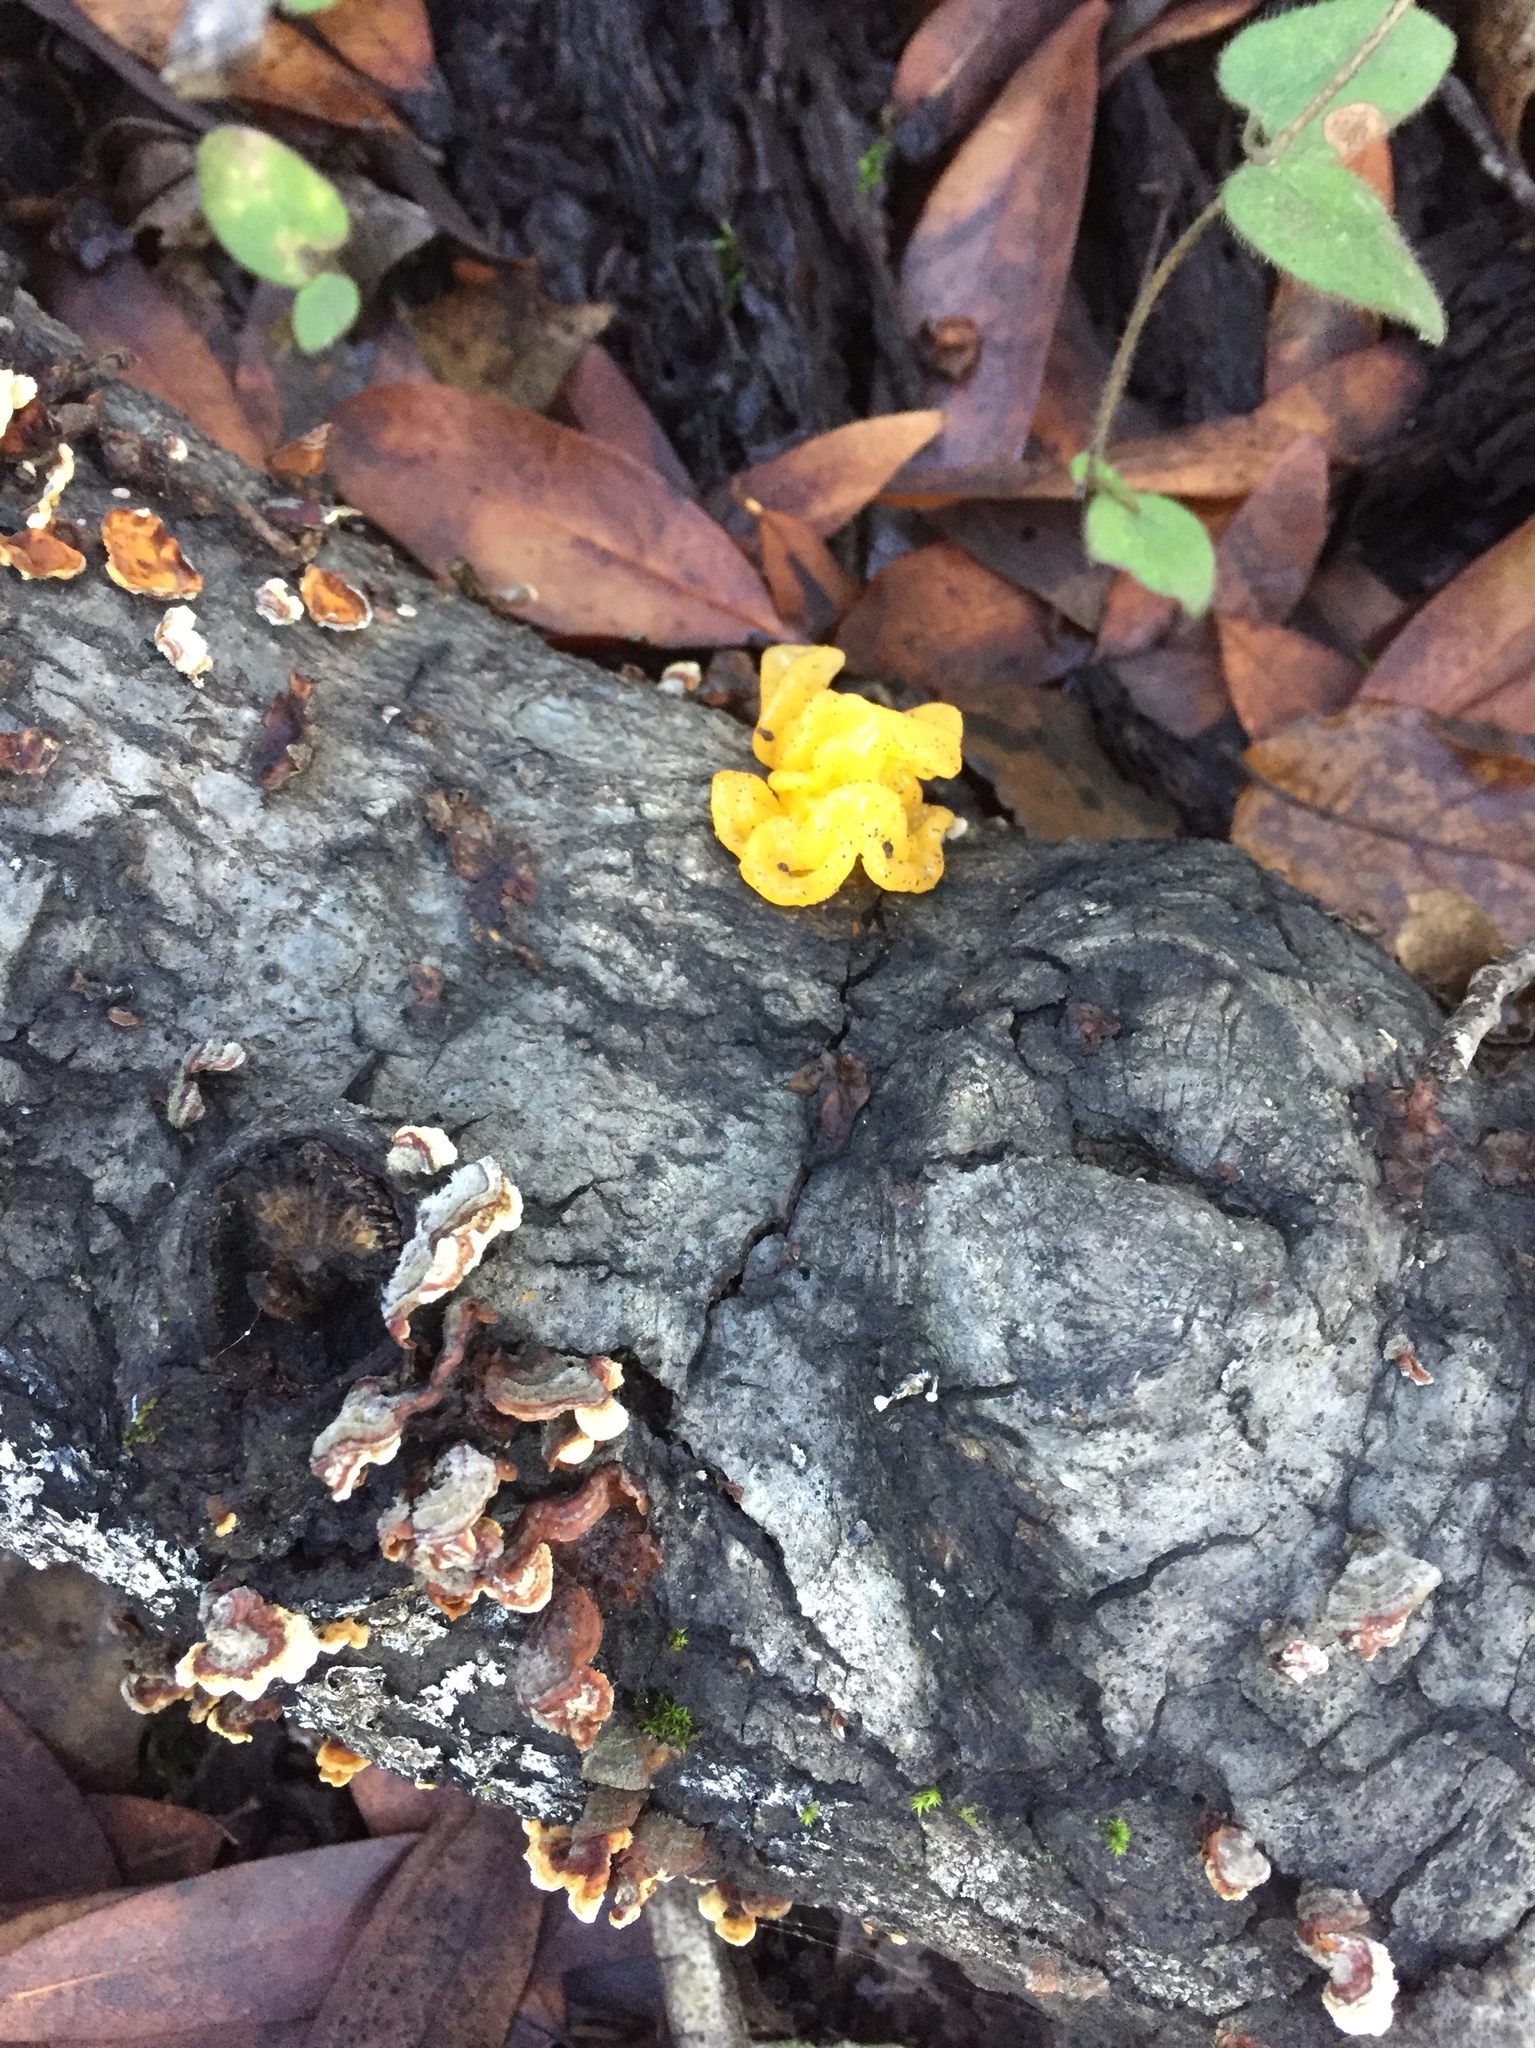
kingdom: Fungi
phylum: Basidiomycota
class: Tremellomycetes
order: Tremellales
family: Naemateliaceae
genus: Naematelia
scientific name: Naematelia aurantia
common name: Golden ear
